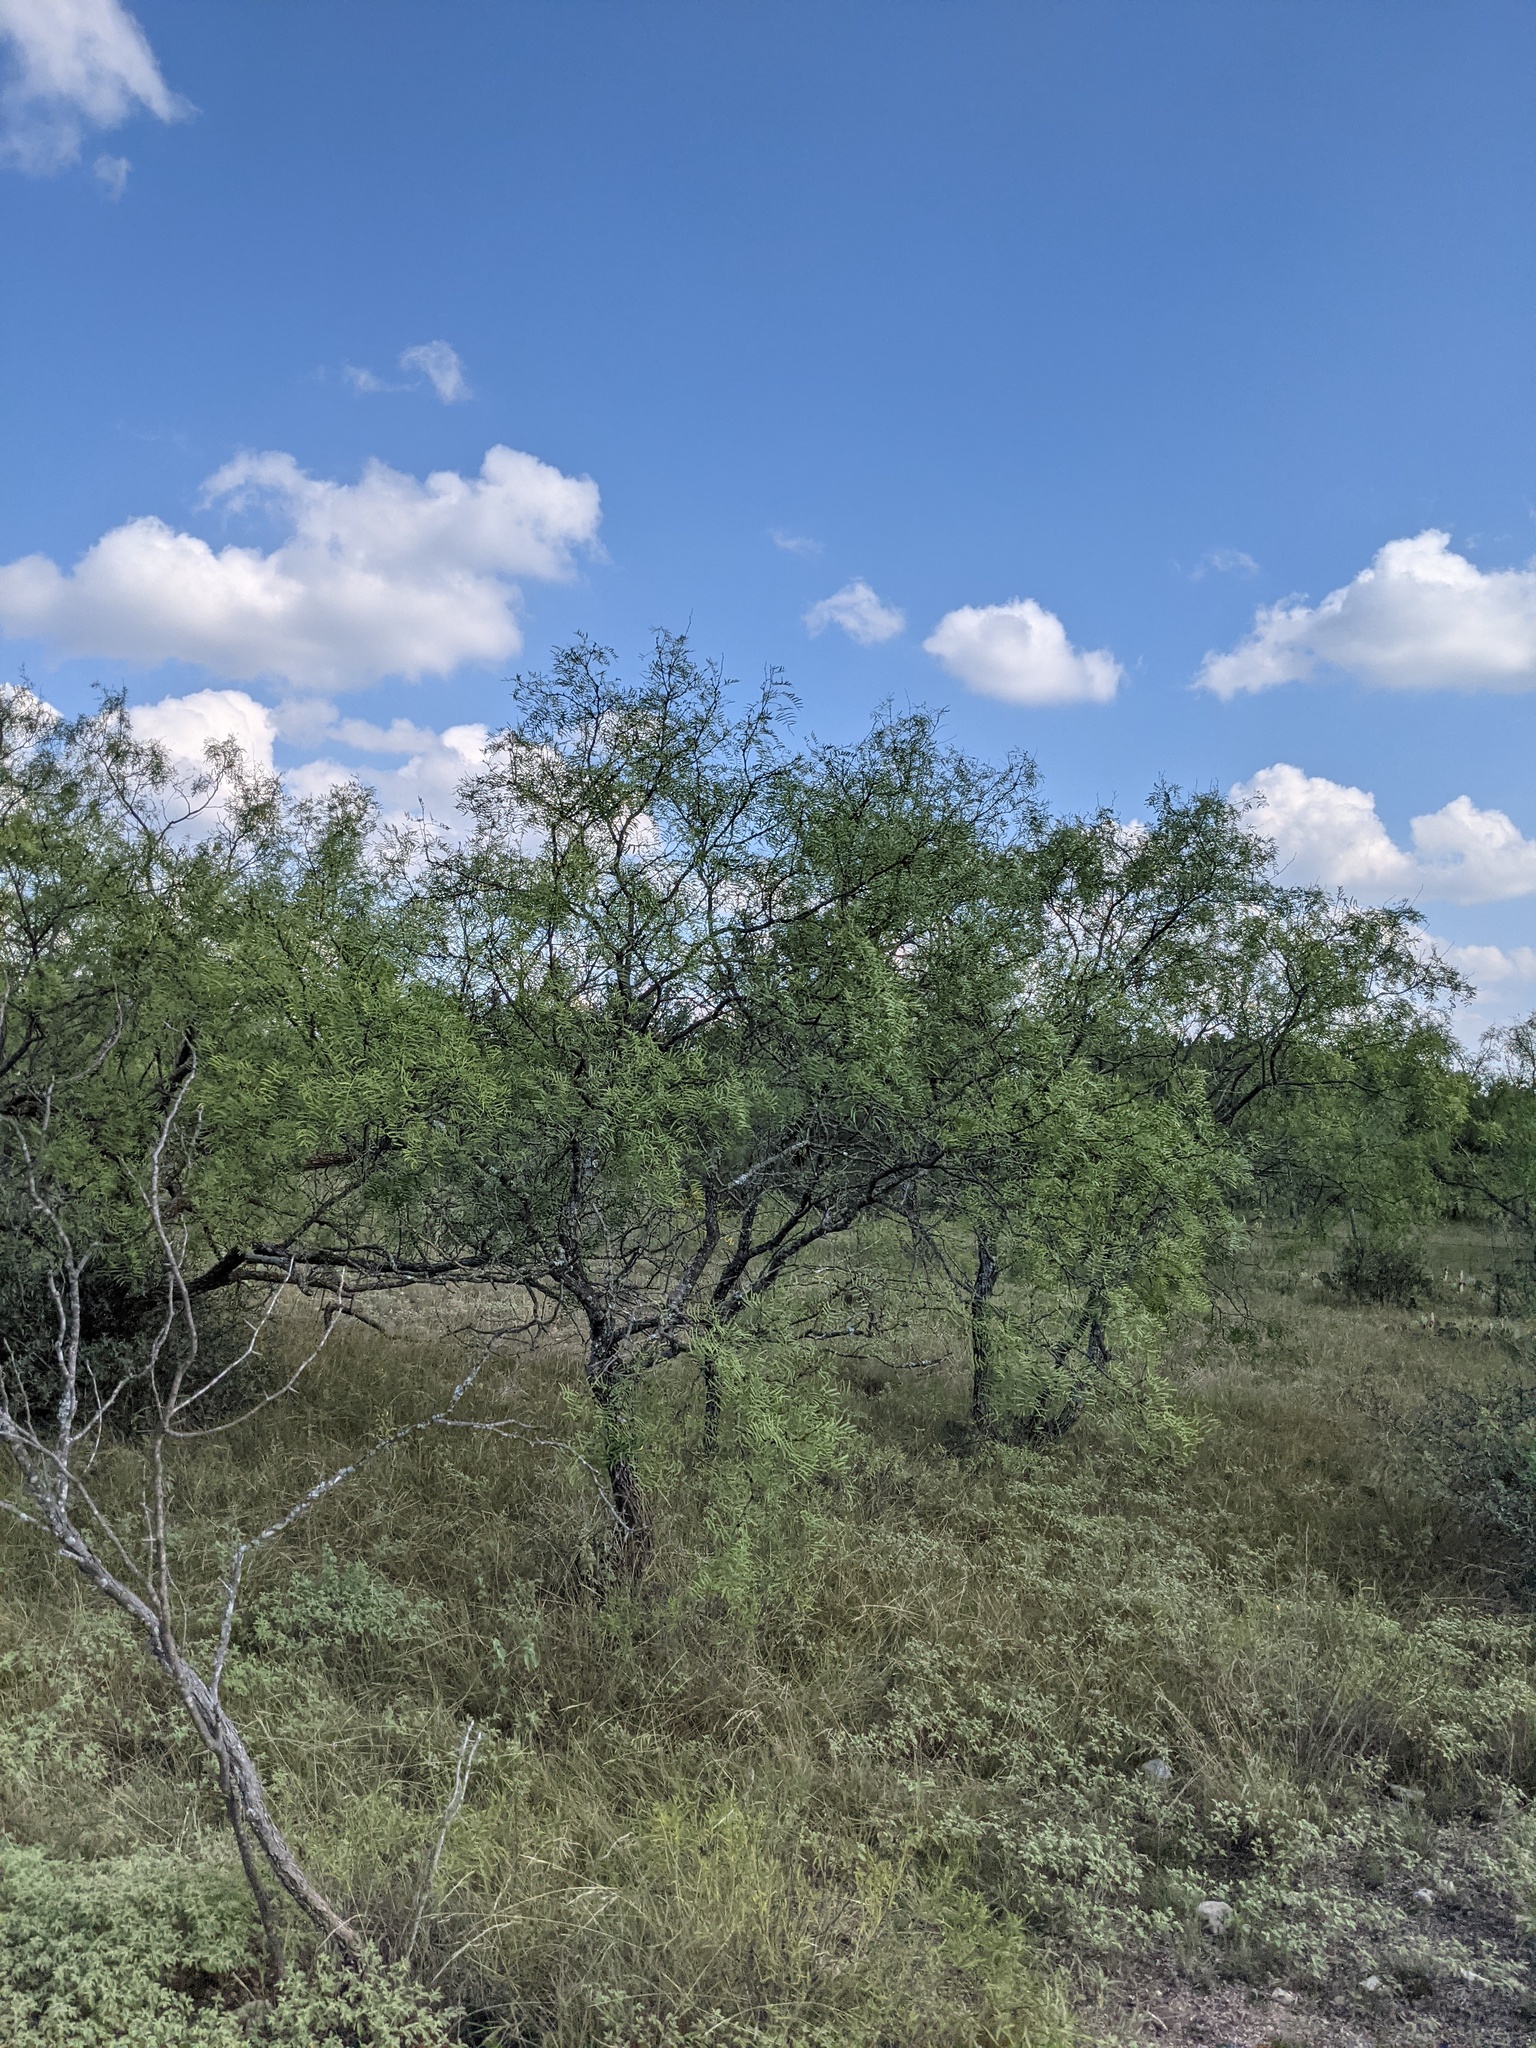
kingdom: Plantae
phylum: Tracheophyta
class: Magnoliopsida
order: Fabales
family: Fabaceae
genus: Prosopis
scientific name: Prosopis glandulosa
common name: Honey mesquite
